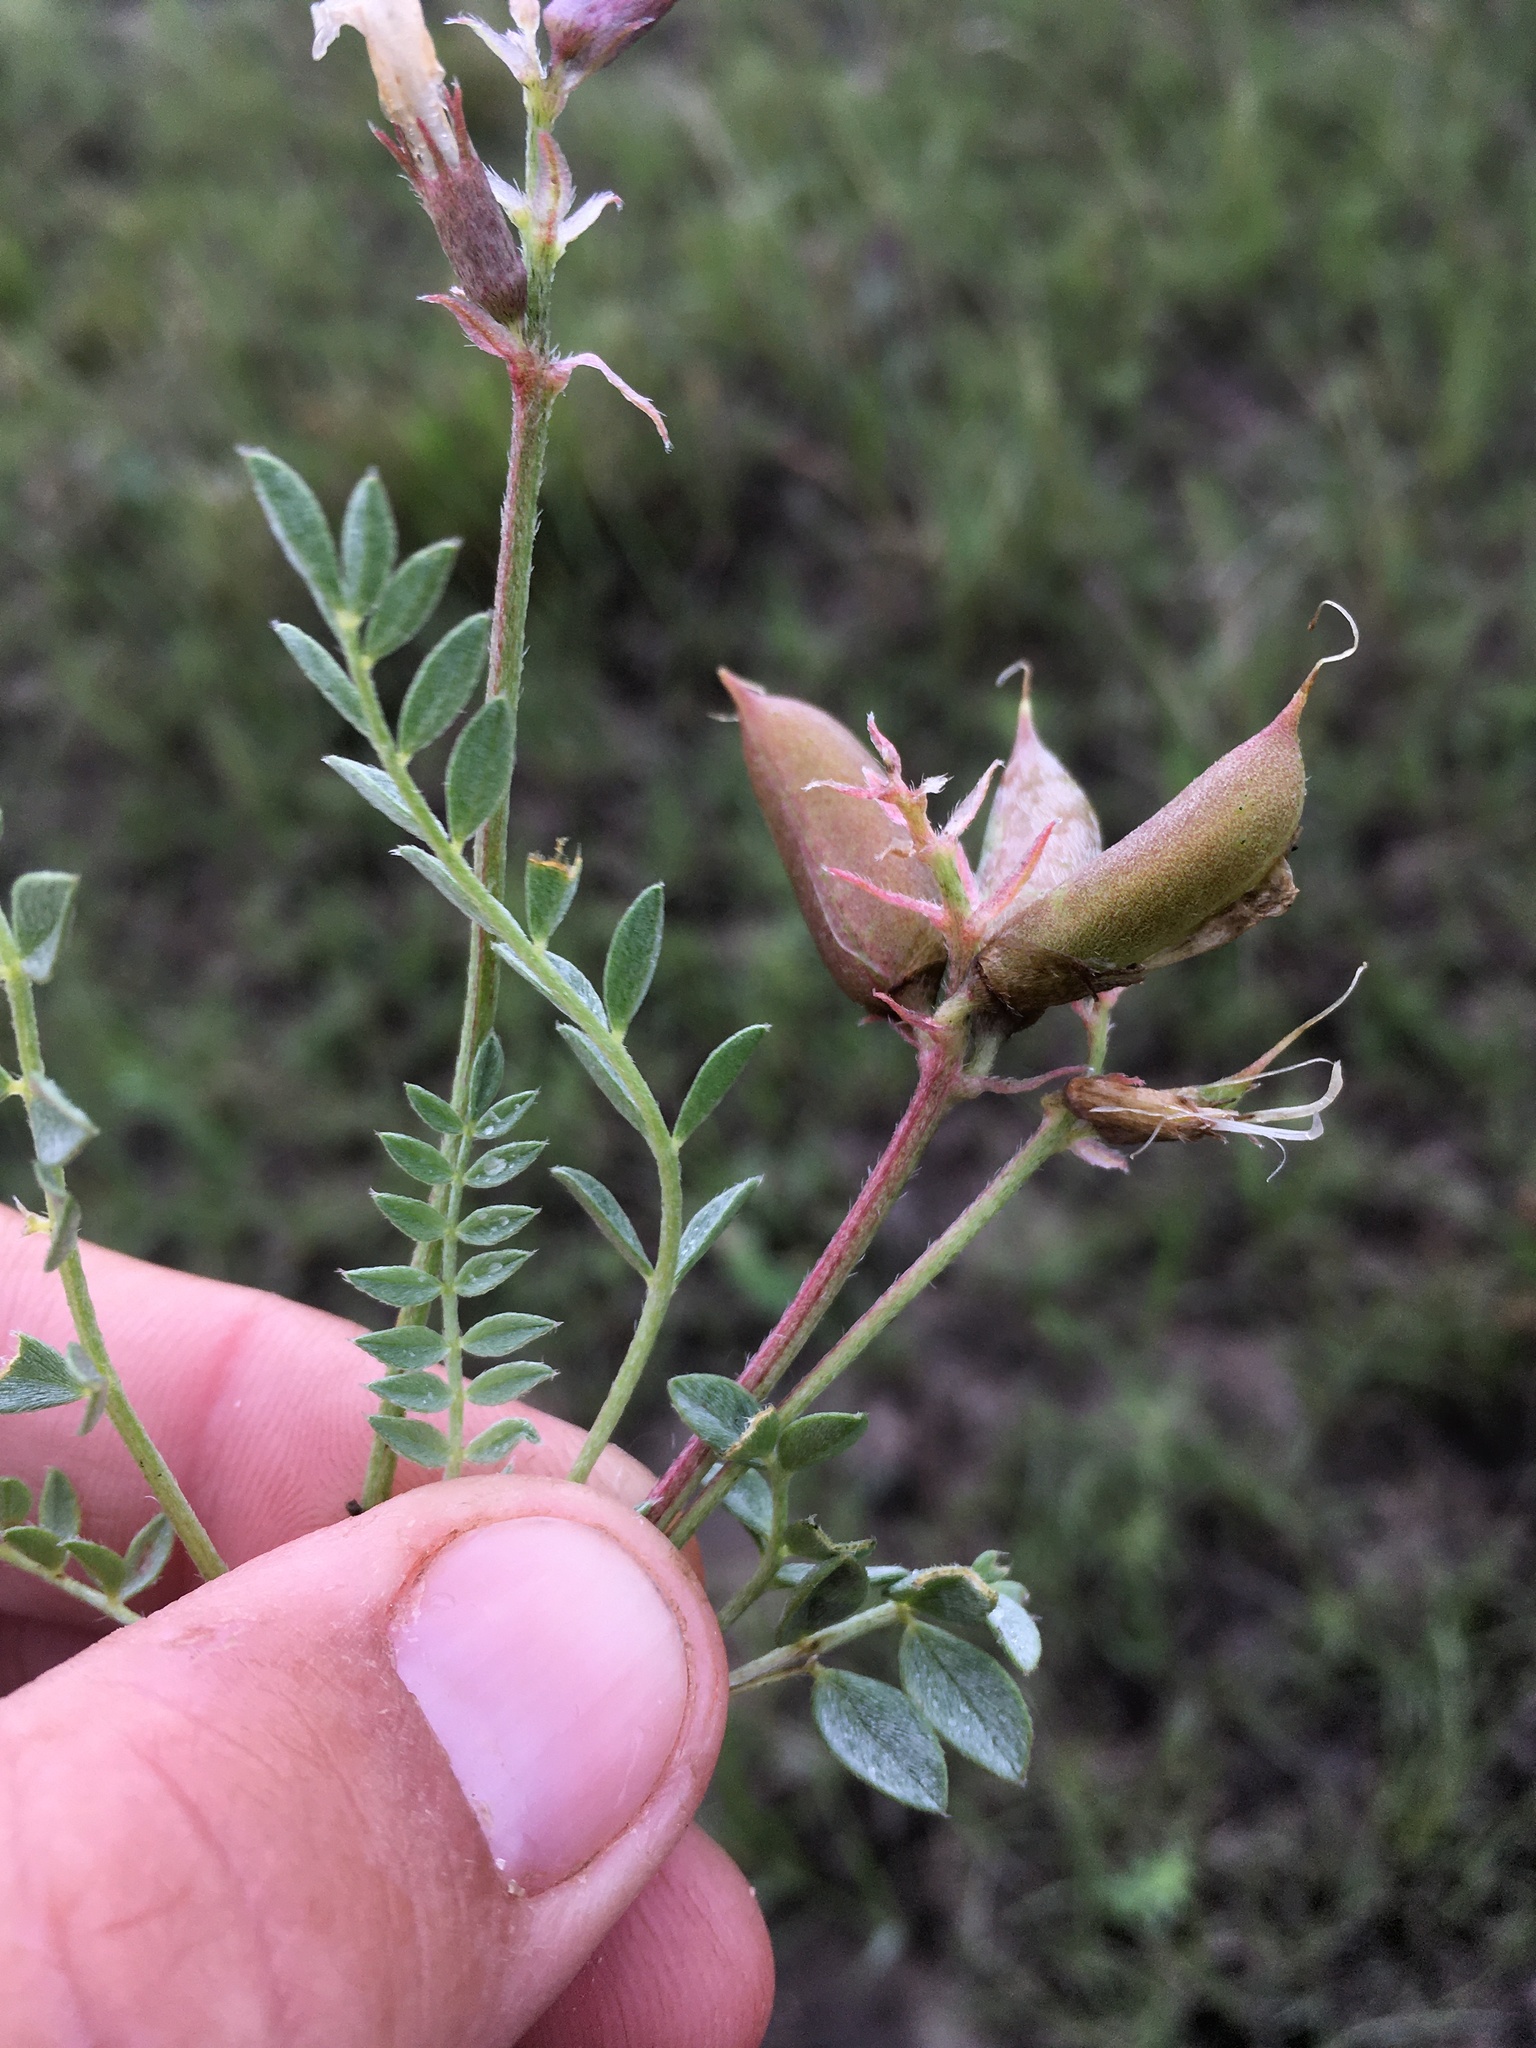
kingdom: Plantae
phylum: Tracheophyta
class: Magnoliopsida
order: Fabales
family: Fabaceae
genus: Astragalus
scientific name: Astragalus missouriensis
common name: Missouri milk-vetch
